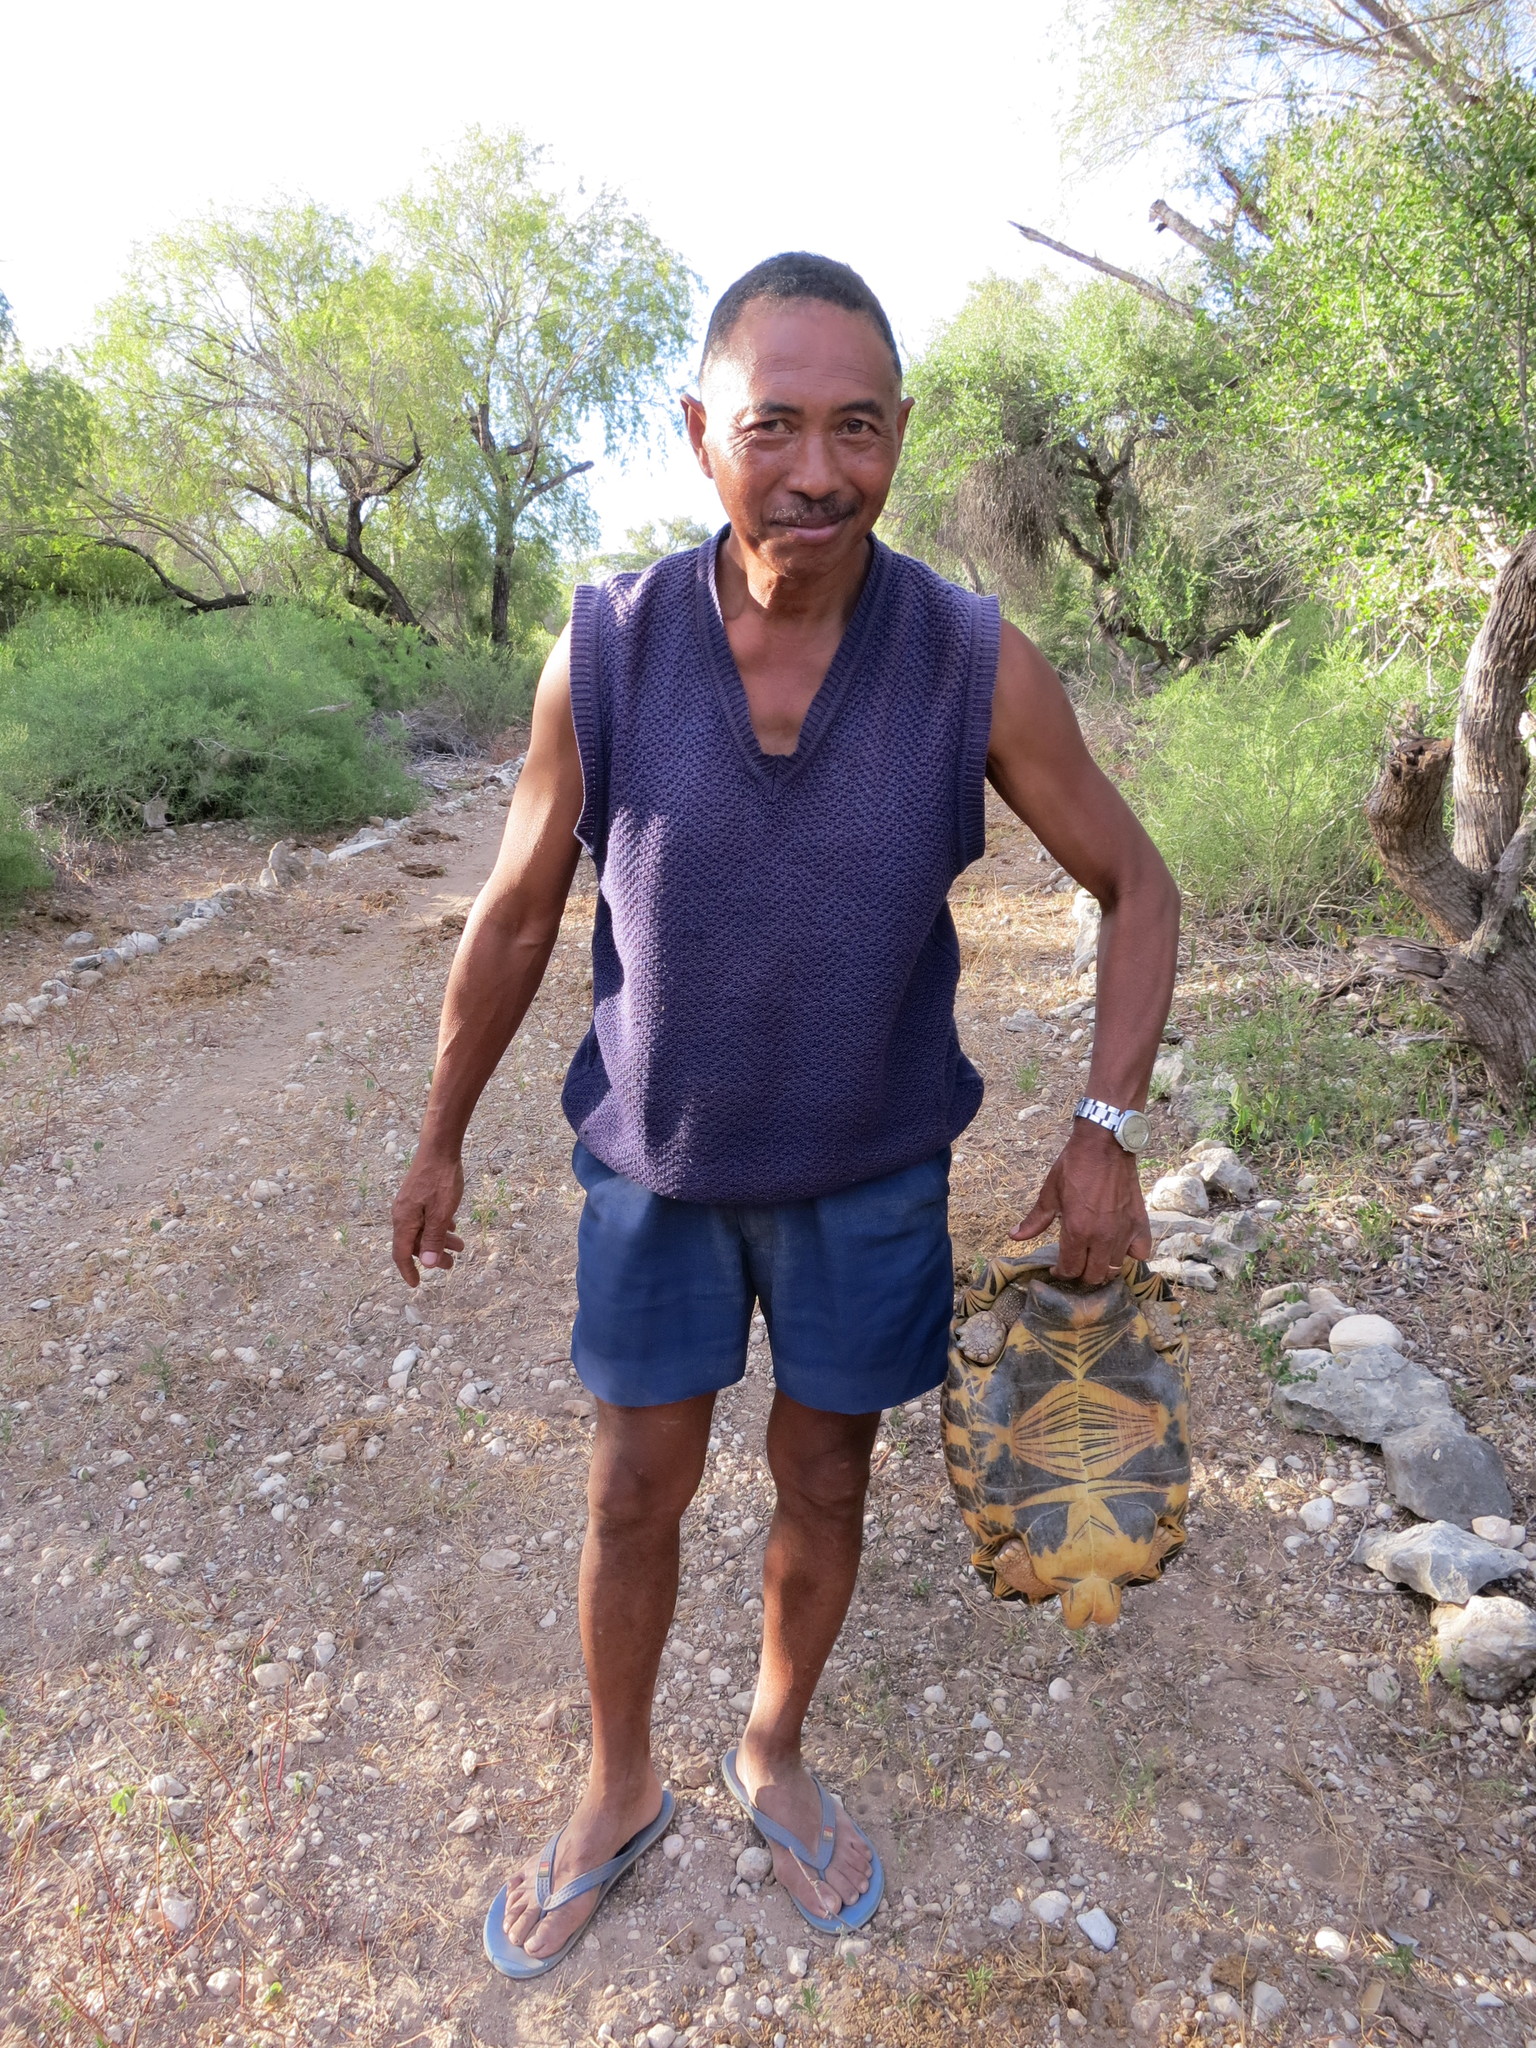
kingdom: Animalia
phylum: Chordata
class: Testudines
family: Testudinidae
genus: Astrochelys
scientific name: Astrochelys radiata
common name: Radiated tortoise
